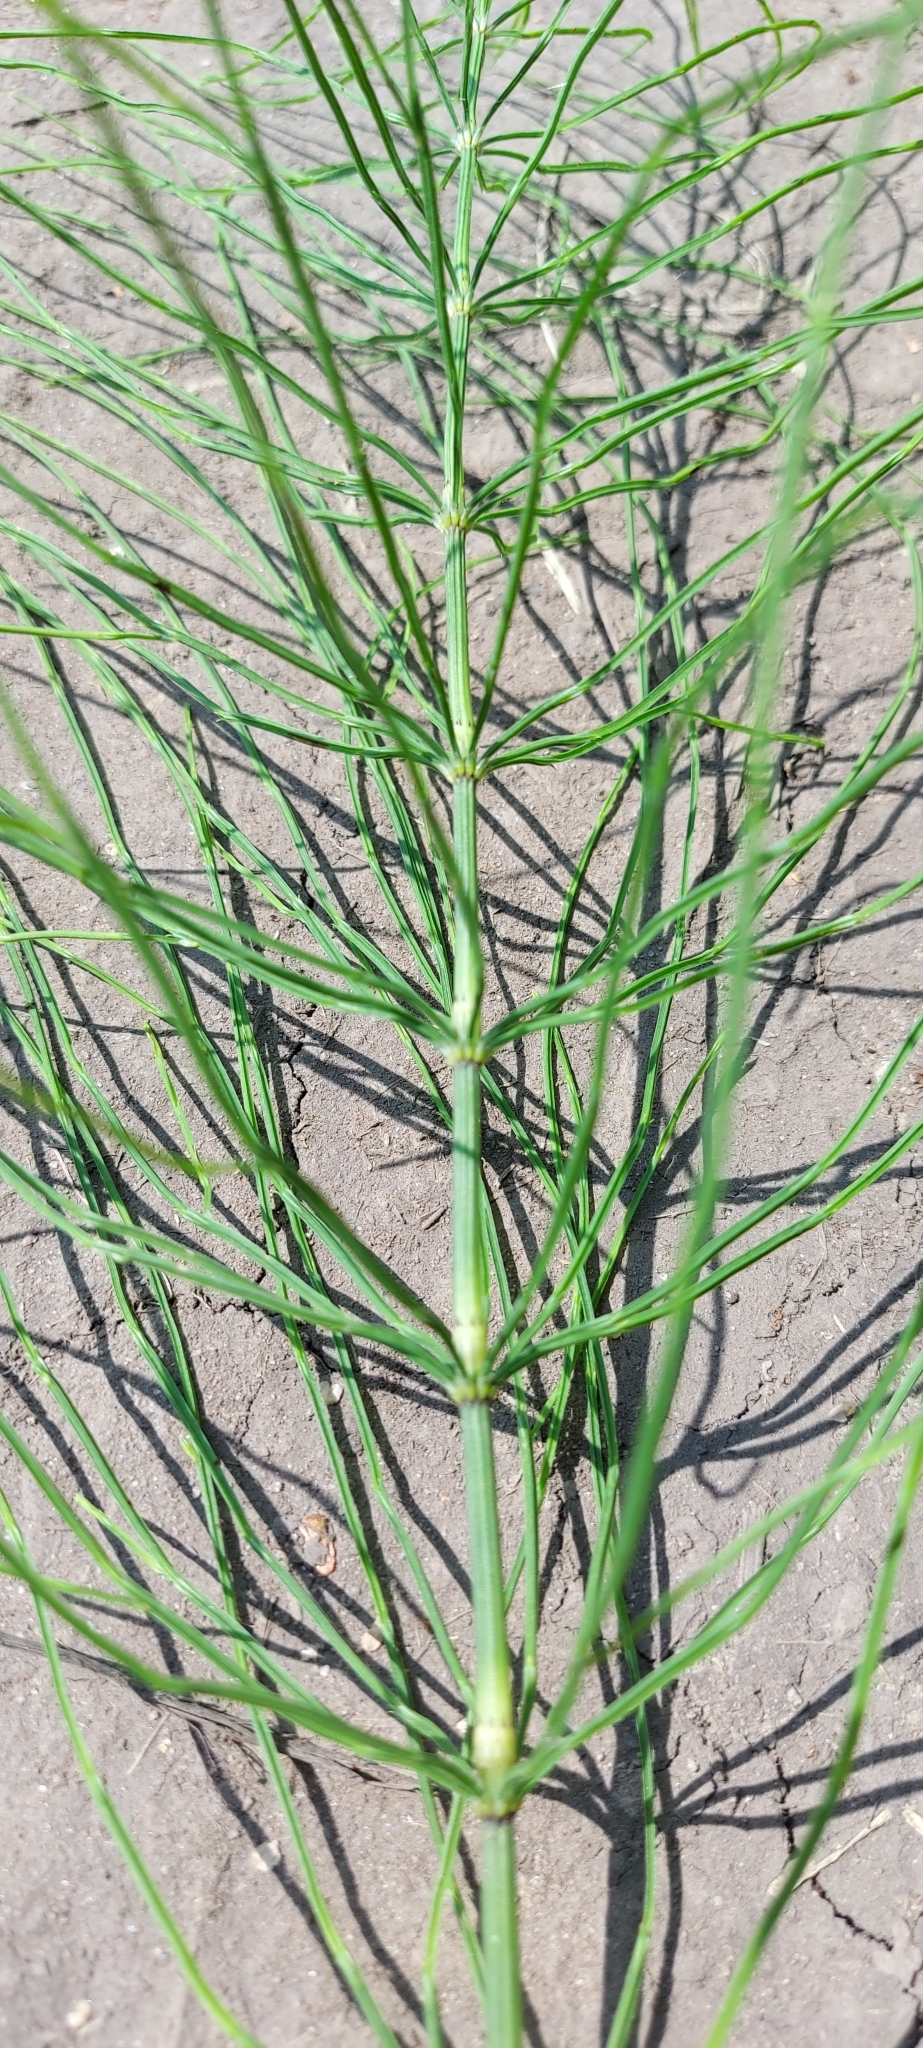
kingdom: Plantae
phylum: Tracheophyta
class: Polypodiopsida
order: Equisetales
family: Equisetaceae
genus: Equisetum
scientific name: Equisetum arvense
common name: Field horsetail
